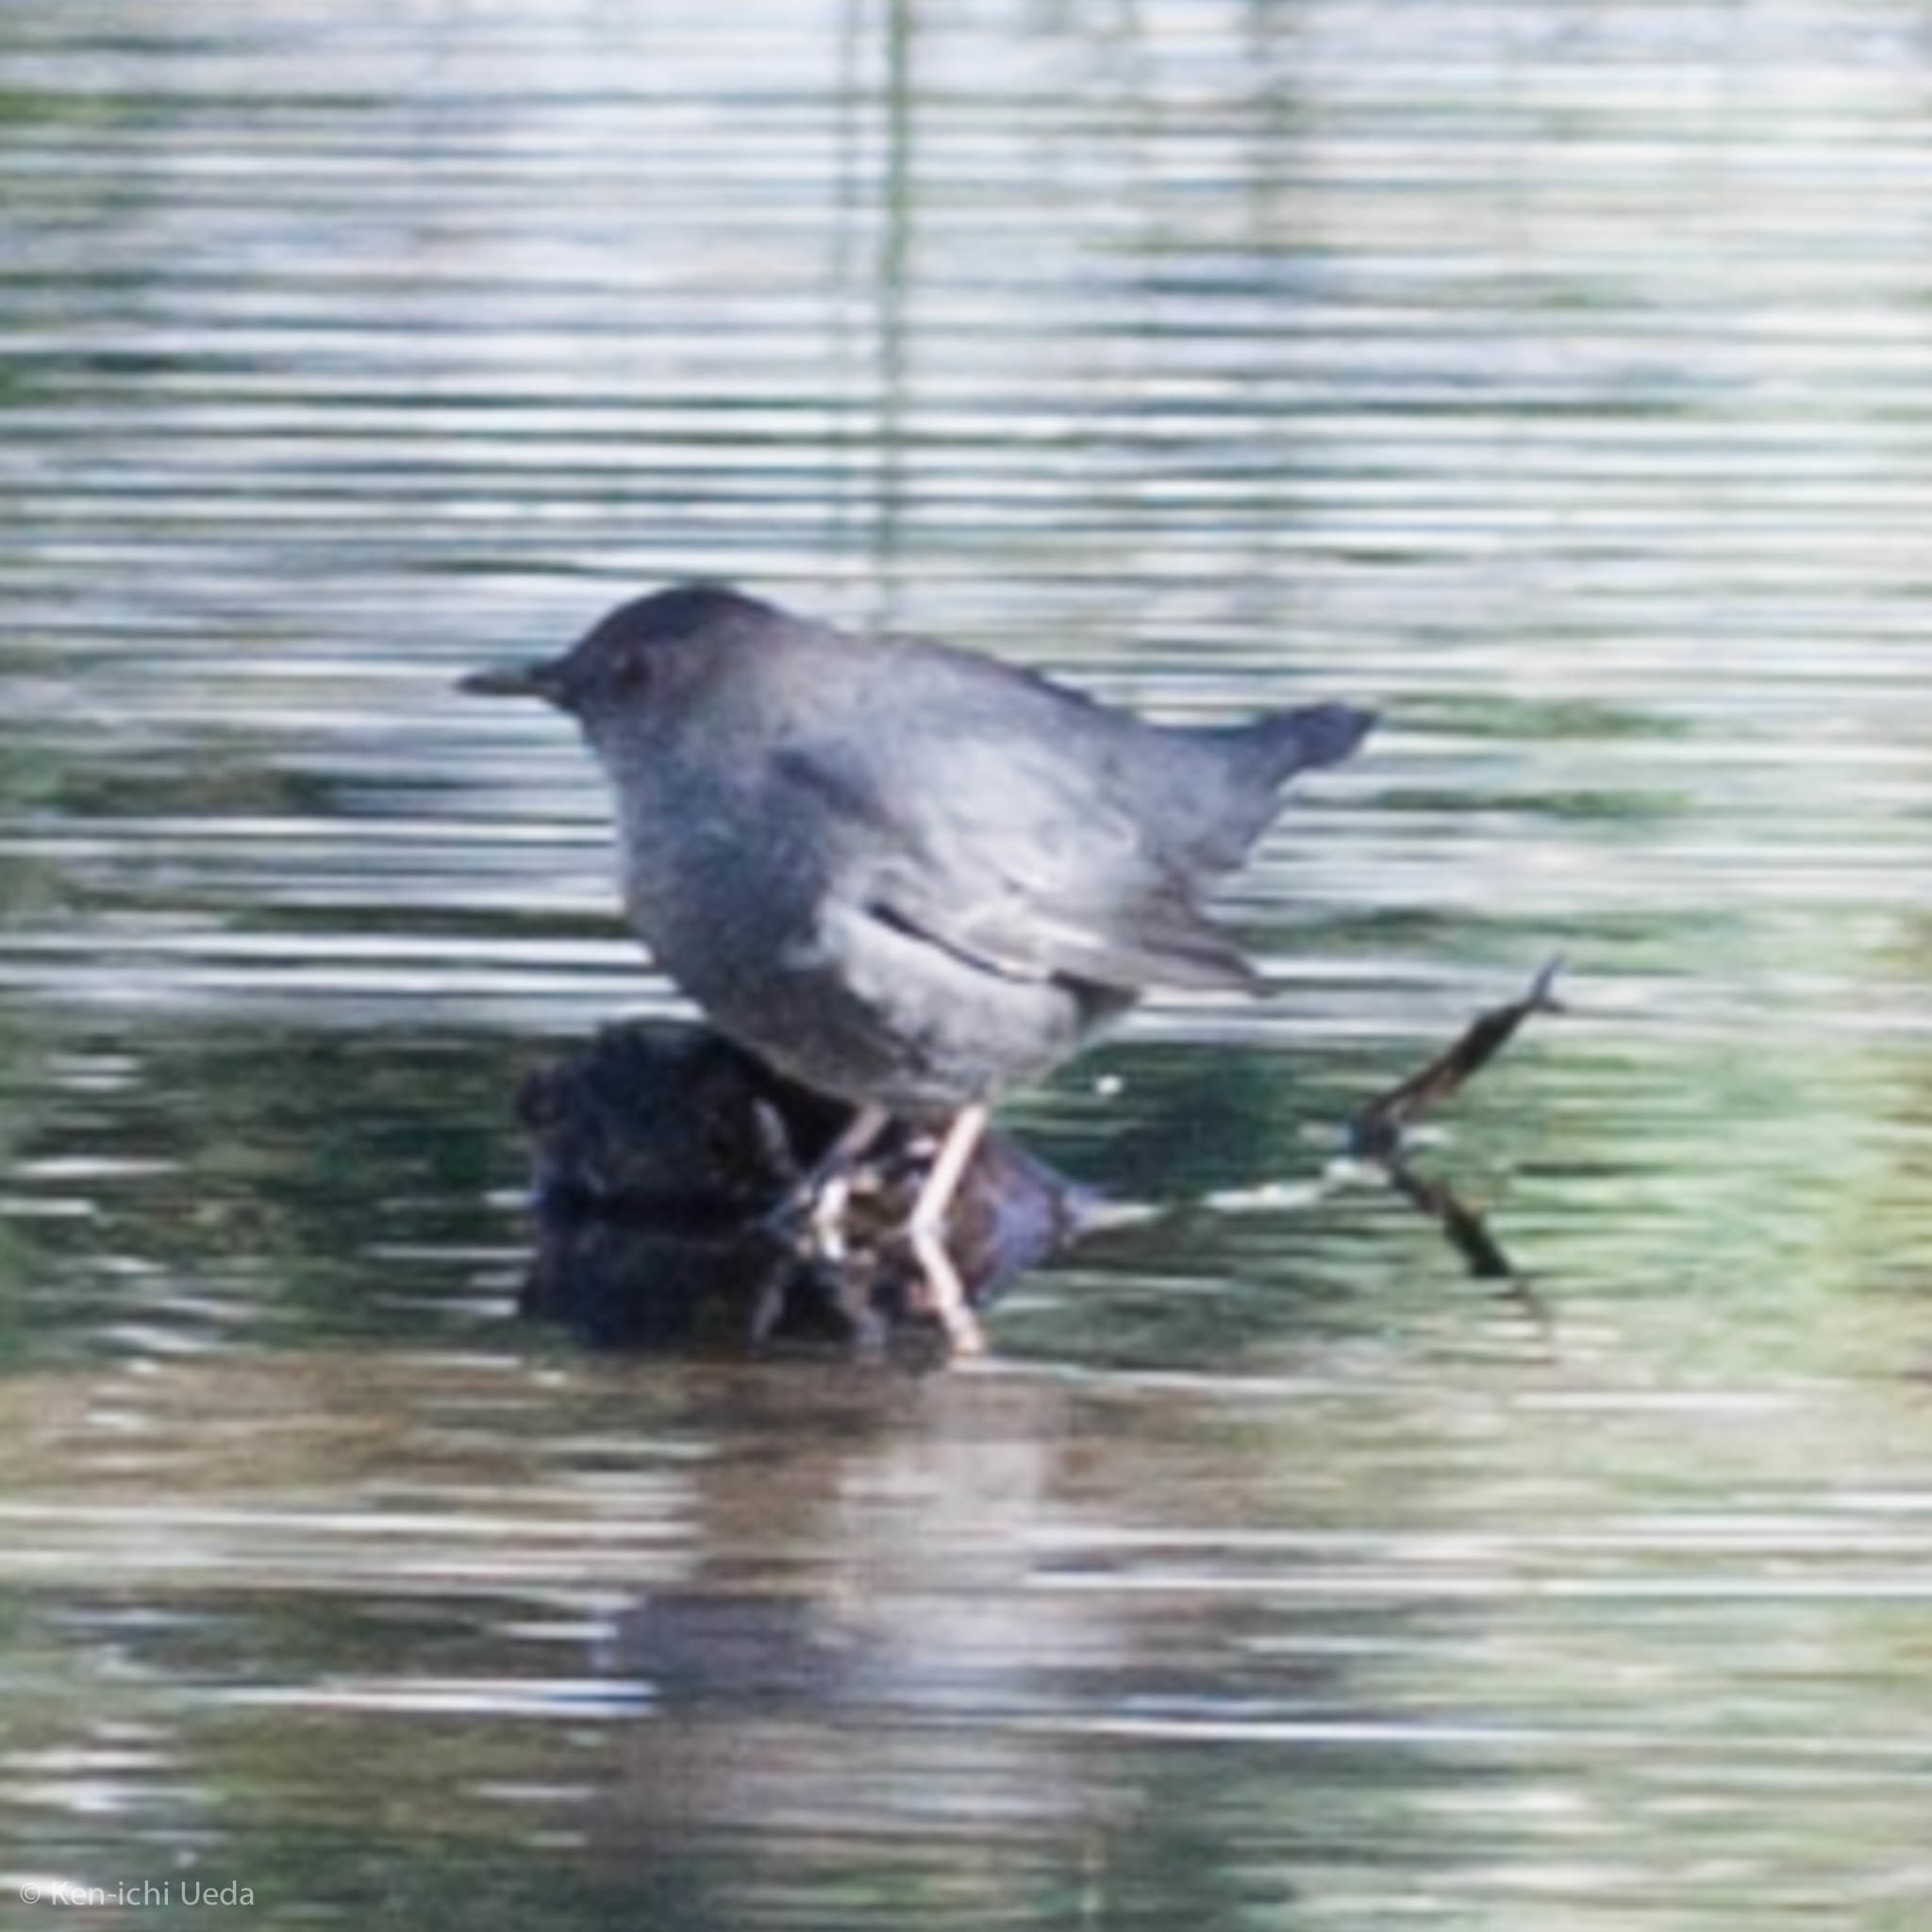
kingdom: Animalia
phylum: Chordata
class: Aves
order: Passeriformes
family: Cinclidae
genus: Cinclus
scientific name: Cinclus mexicanus
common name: American dipper
